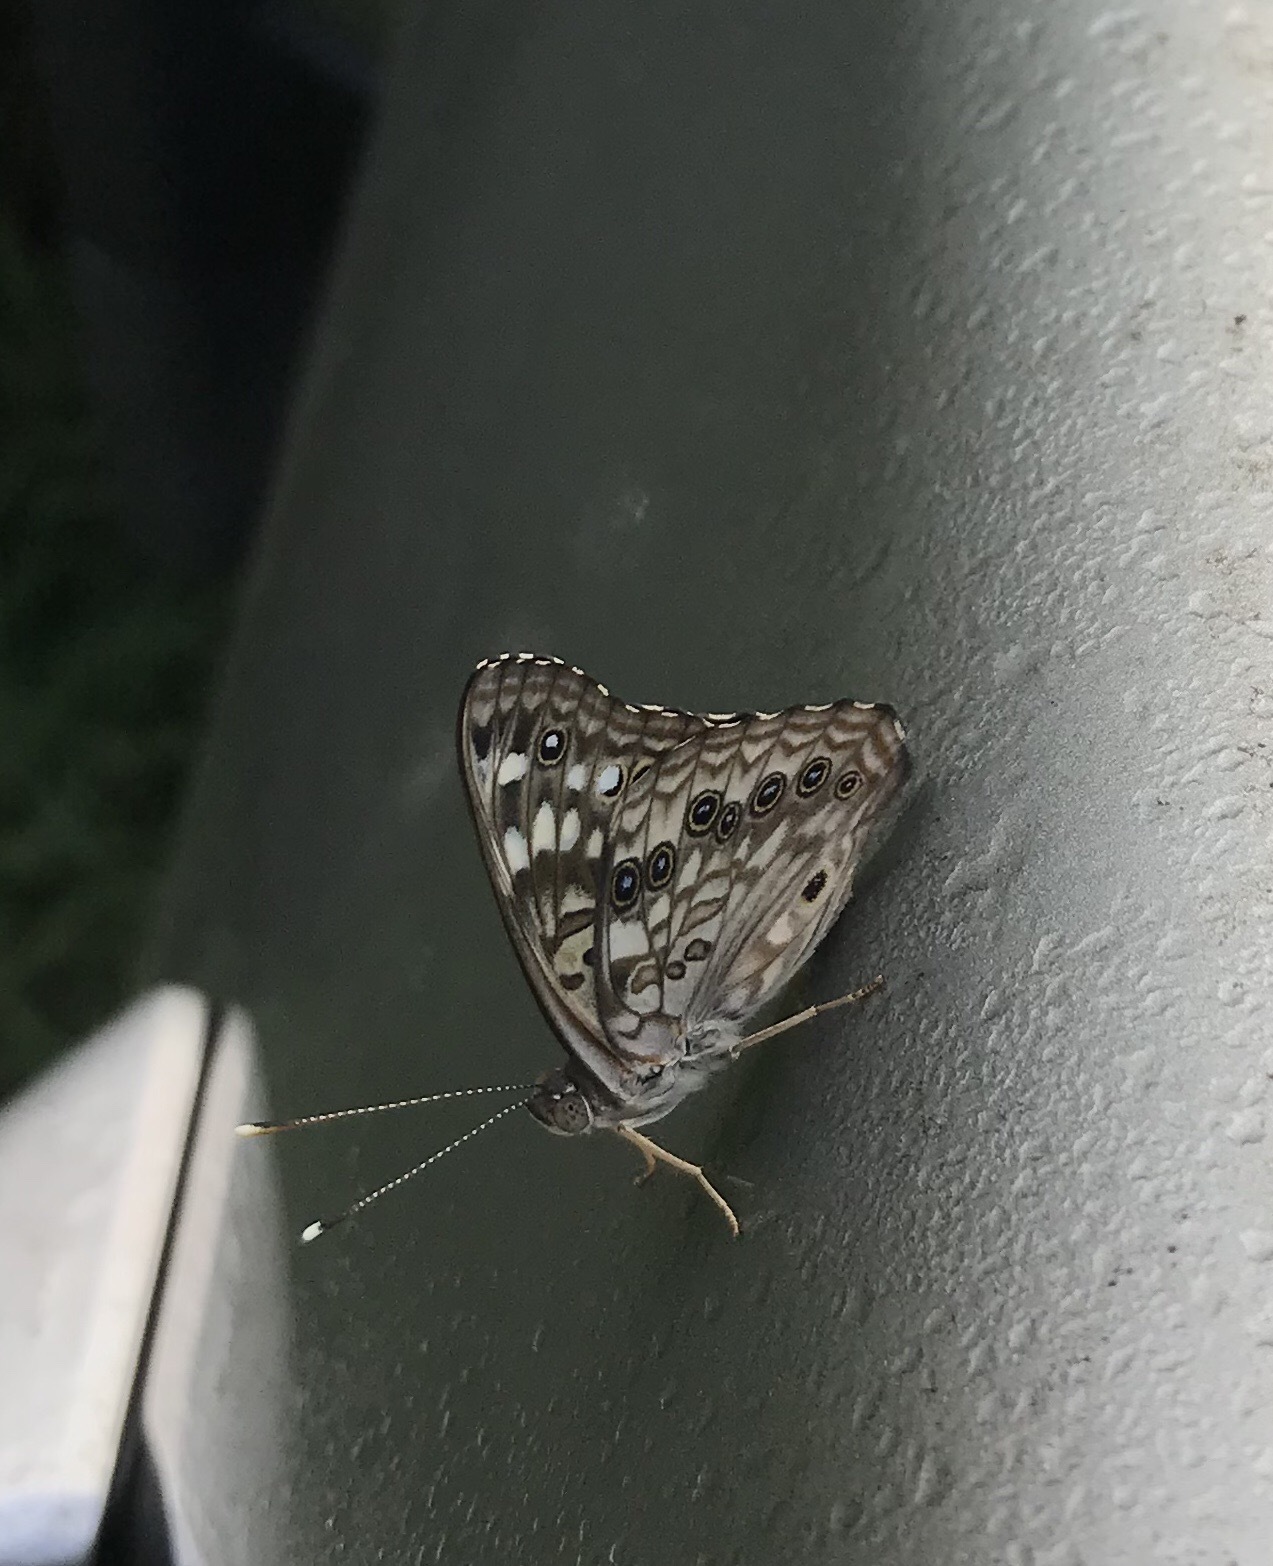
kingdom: Animalia
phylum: Arthropoda
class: Insecta
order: Lepidoptera
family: Nymphalidae
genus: Asterocampa
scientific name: Asterocampa celtis
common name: Hackberry emperor
